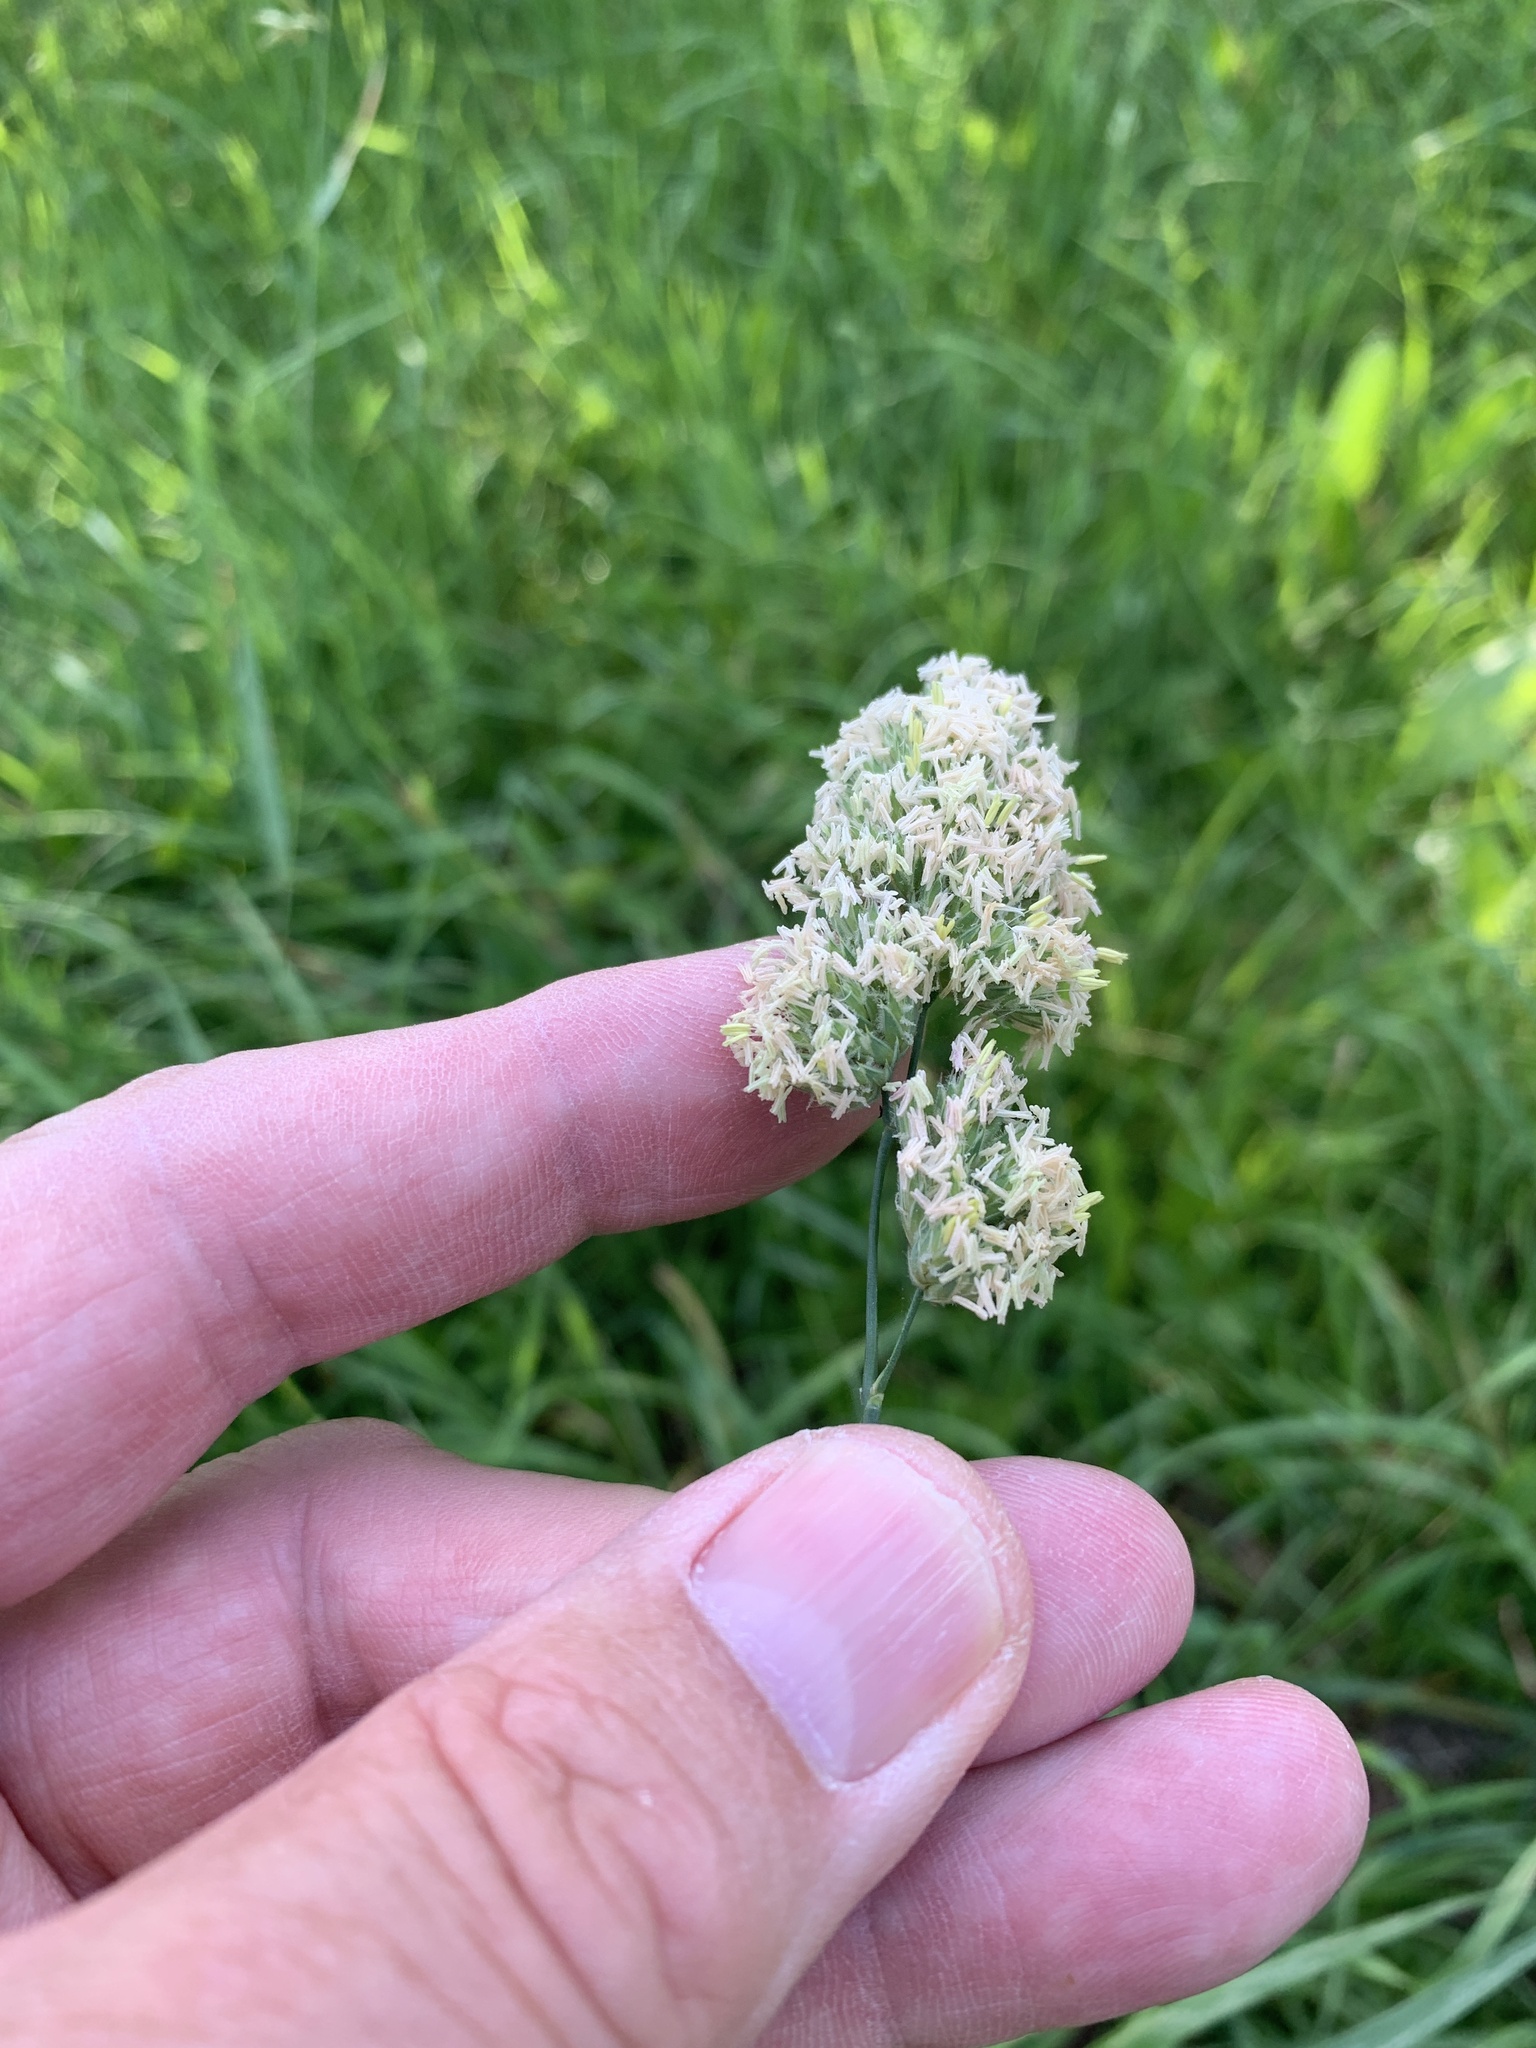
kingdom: Plantae
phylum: Tracheophyta
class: Liliopsida
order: Poales
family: Poaceae
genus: Dactylis
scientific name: Dactylis glomerata
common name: Orchardgrass
